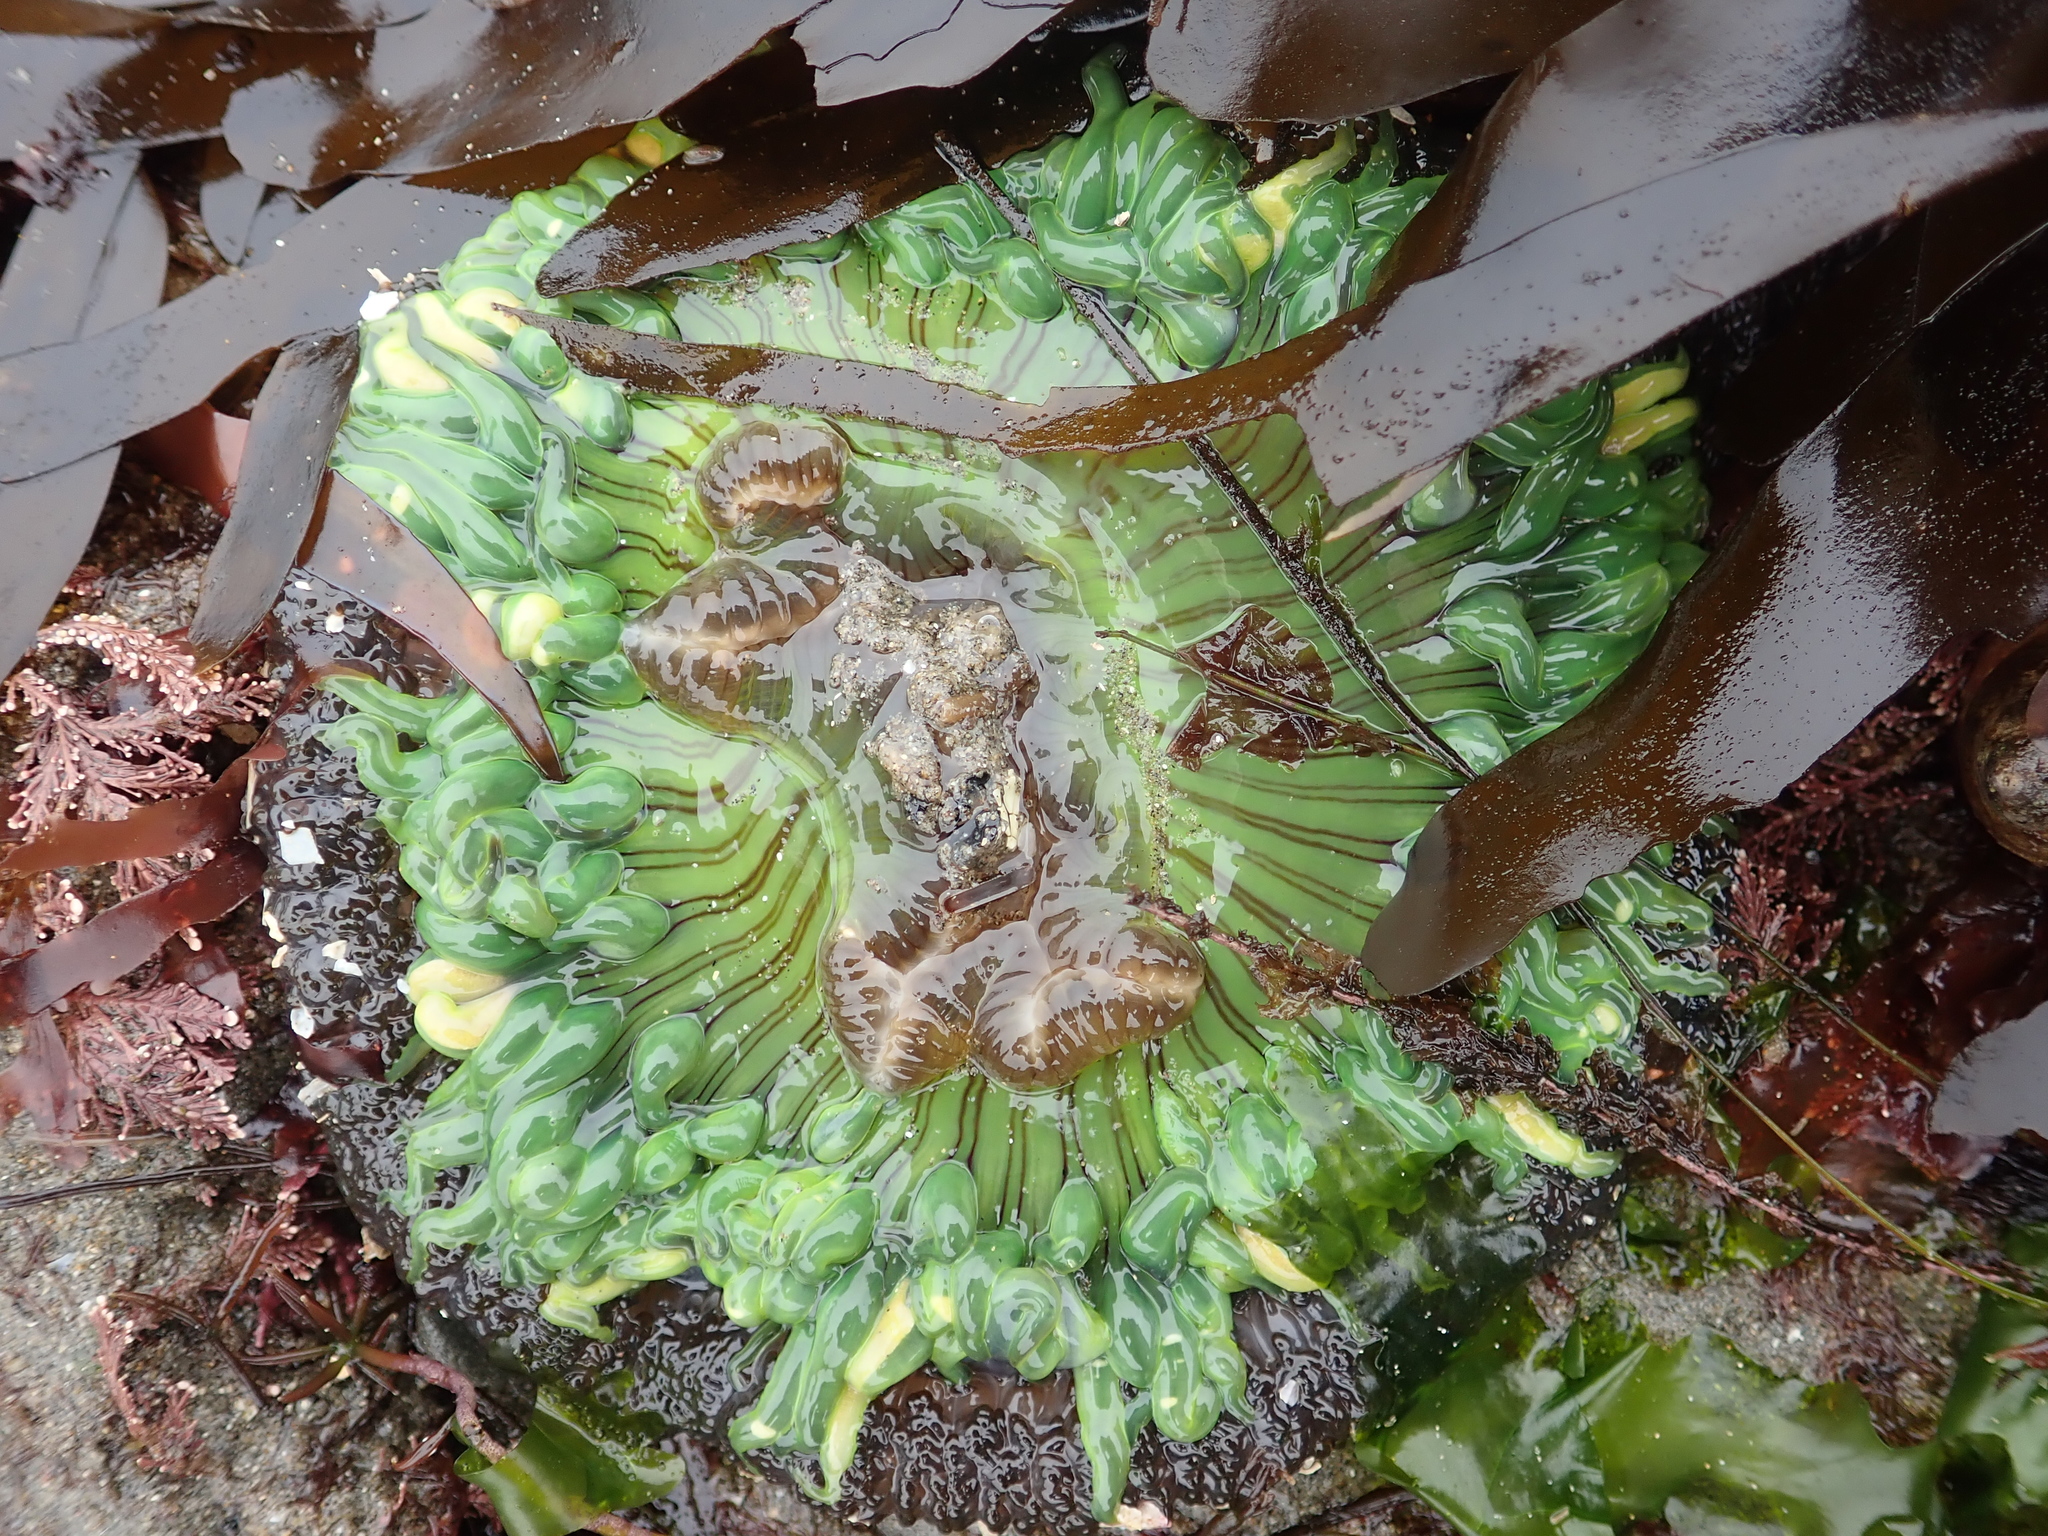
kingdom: Animalia
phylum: Cnidaria
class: Anthozoa
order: Actiniaria
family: Actiniidae
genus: Anthopleura
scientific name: Anthopleura sola
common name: Sun anemone
